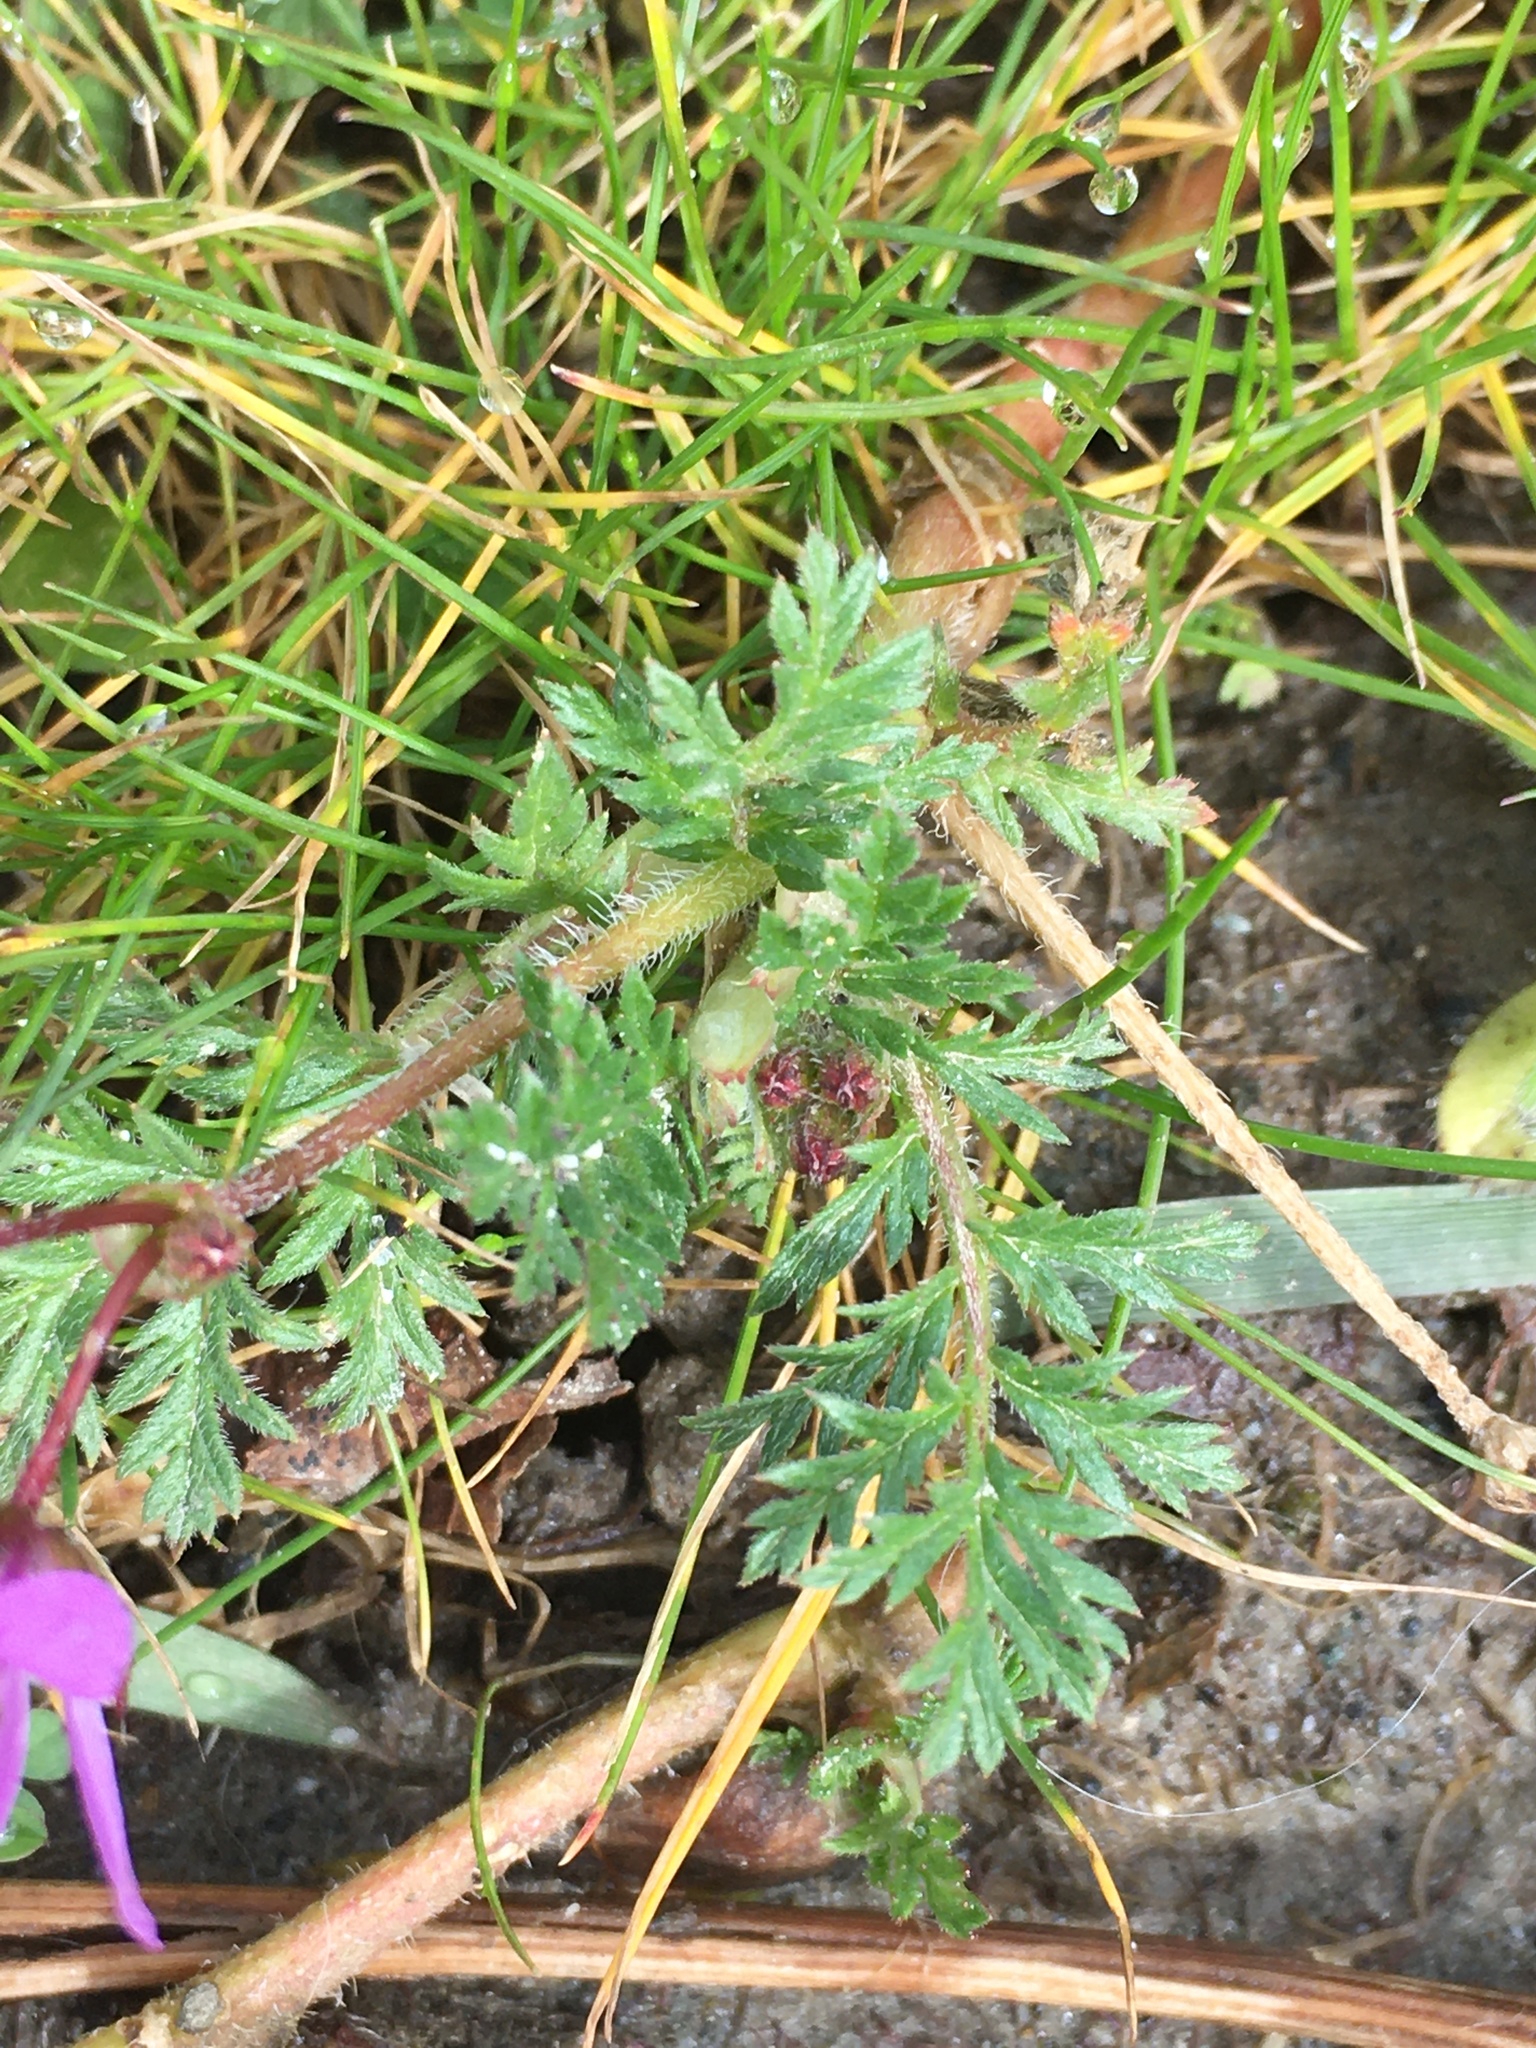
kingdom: Plantae
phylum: Tracheophyta
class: Magnoliopsida
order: Geraniales
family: Geraniaceae
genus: Erodium
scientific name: Erodium cicutarium
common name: Common stork's-bill
